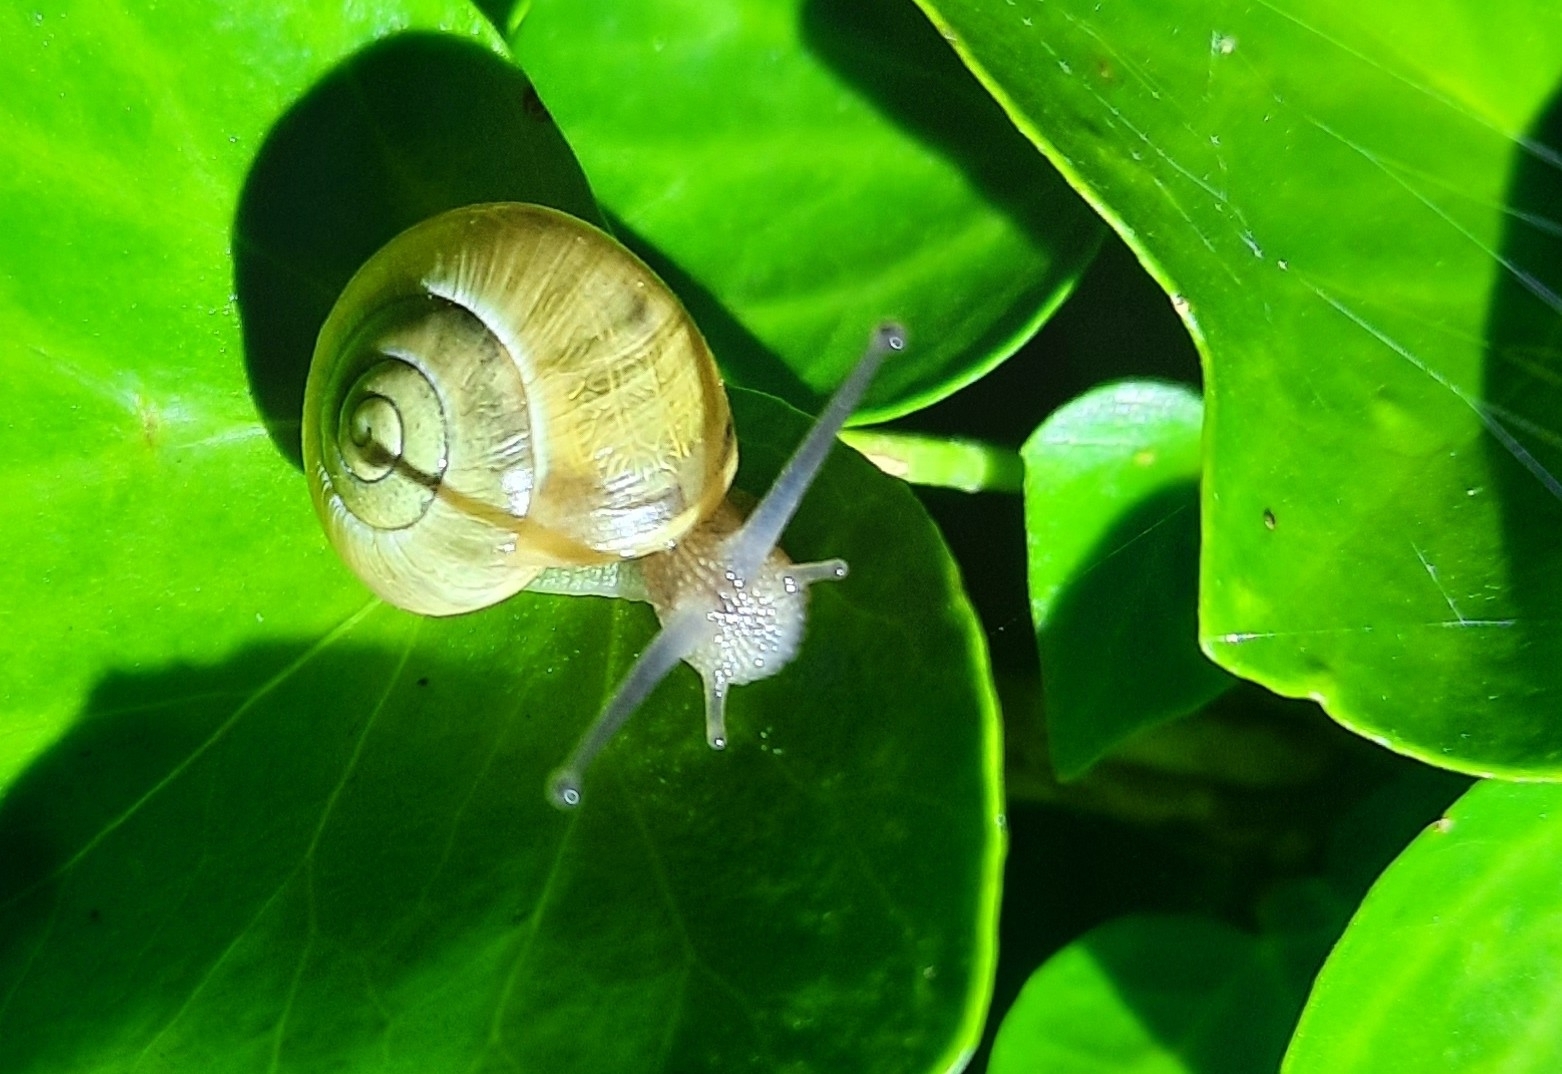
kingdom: Animalia
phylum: Mollusca
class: Gastropoda
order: Stylommatophora
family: Helicidae
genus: Cepaea
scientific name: Cepaea
